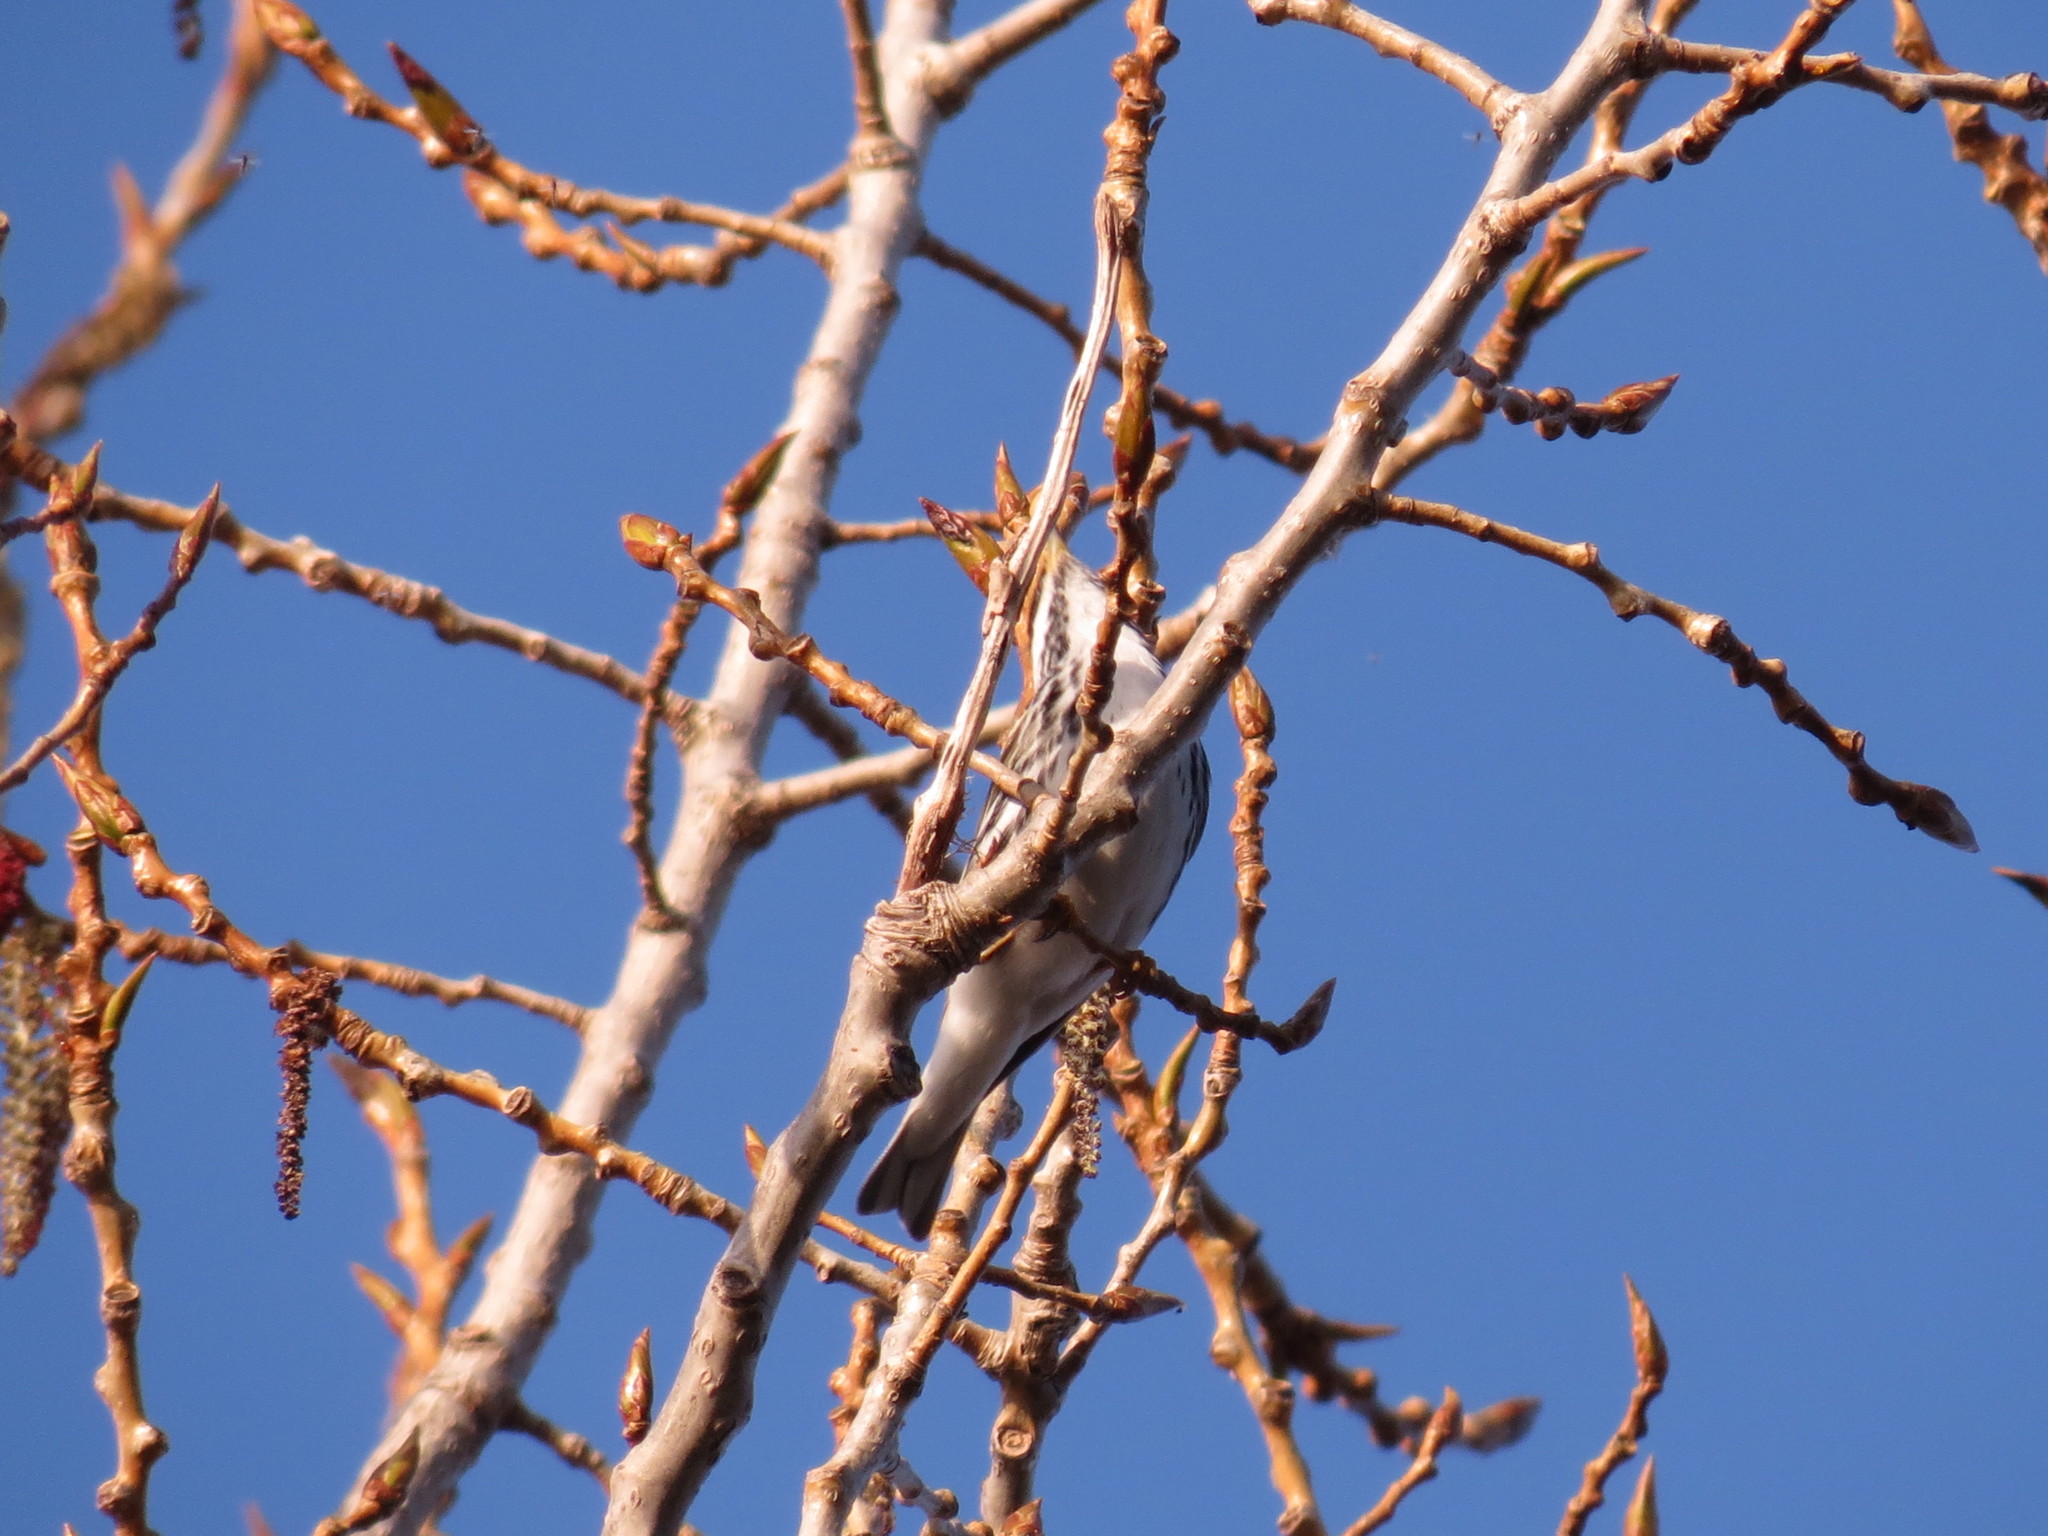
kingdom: Animalia
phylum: Chordata
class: Aves
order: Passeriformes
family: Parulidae
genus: Setophaga
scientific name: Setophaga striata
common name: Blackpoll warbler
